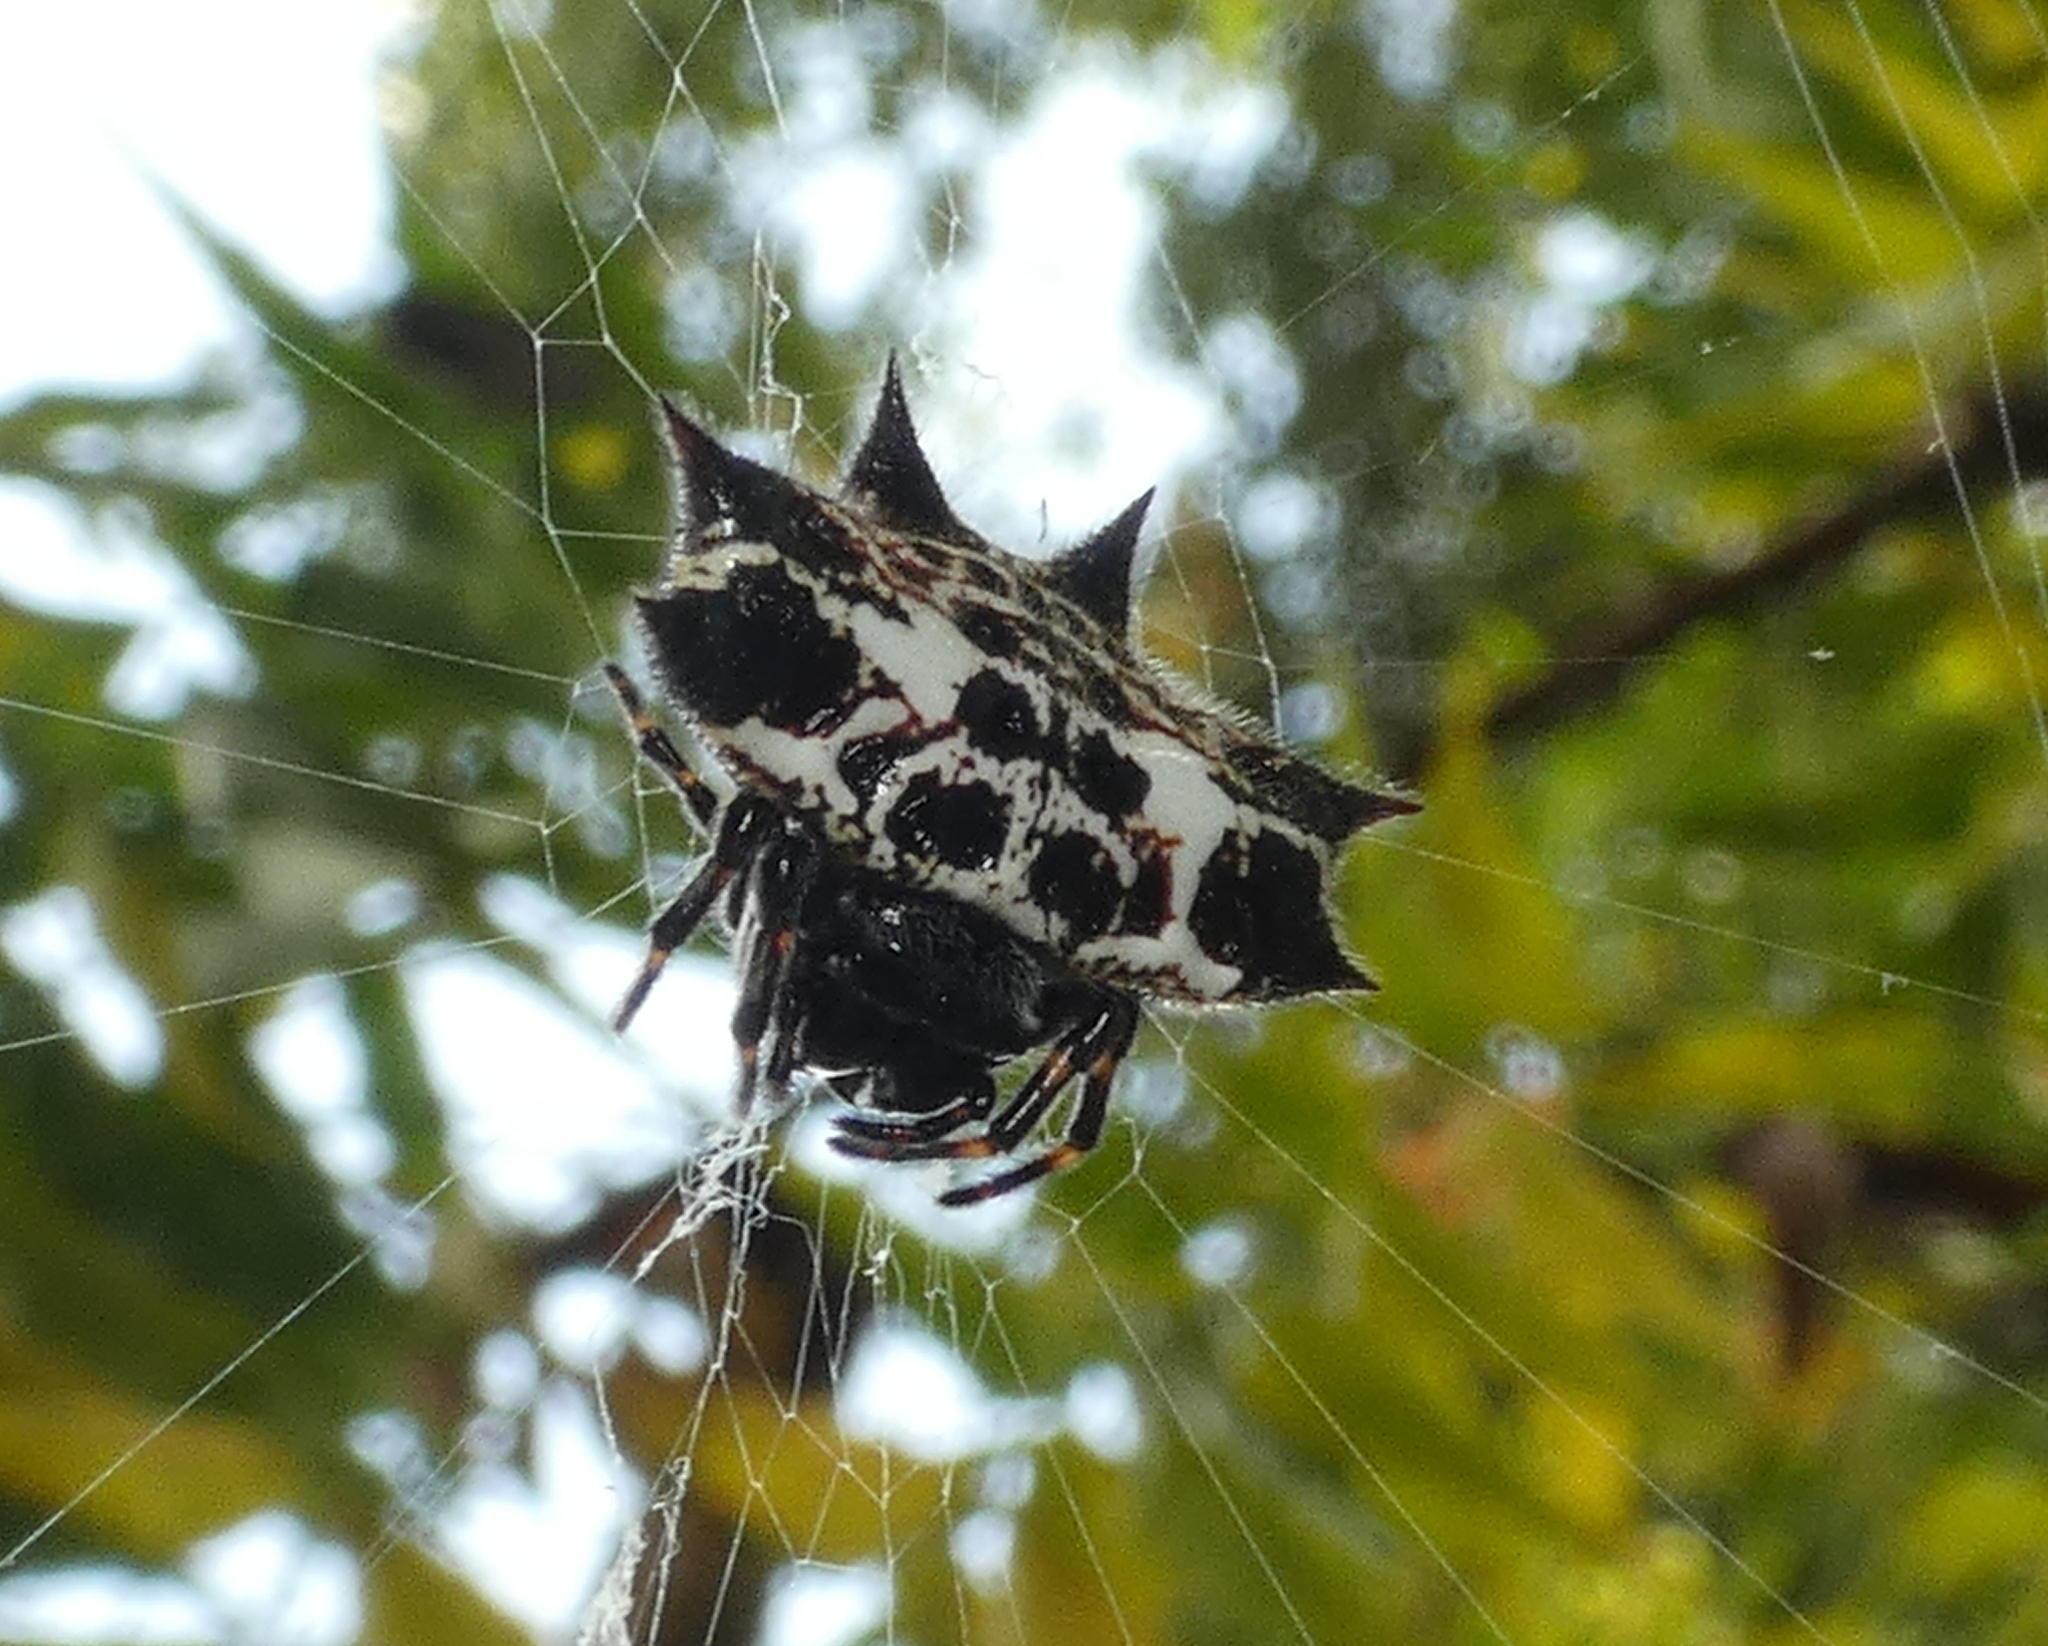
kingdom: Animalia
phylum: Arthropoda
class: Arachnida
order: Araneae
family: Araneidae
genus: Gasteracantha
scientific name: Gasteracantha cancriformis
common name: Orb weavers
